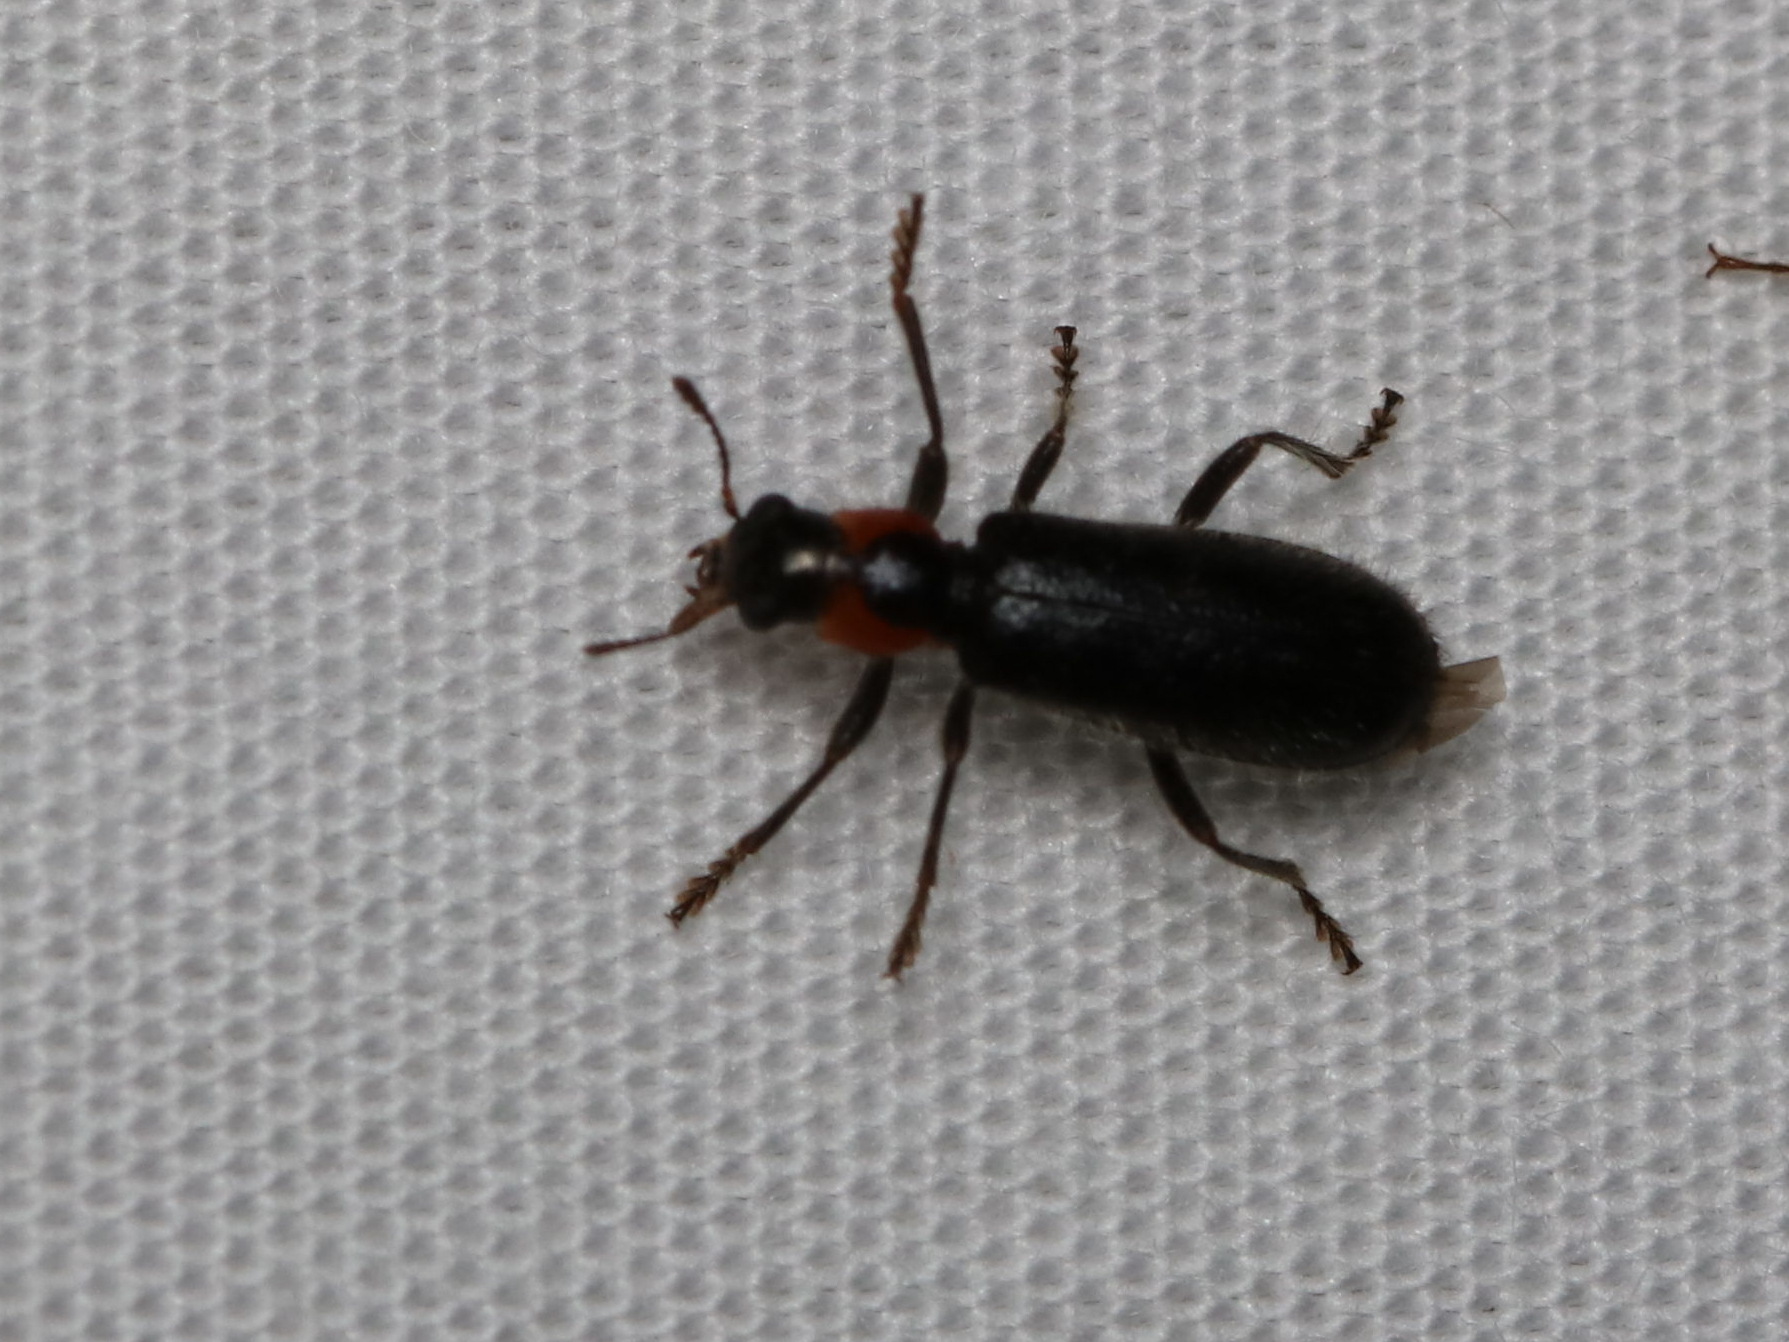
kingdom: Animalia
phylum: Arthropoda
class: Insecta
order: Coleoptera
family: Cleridae
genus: Placopterus
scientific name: Placopterus thoracicus
